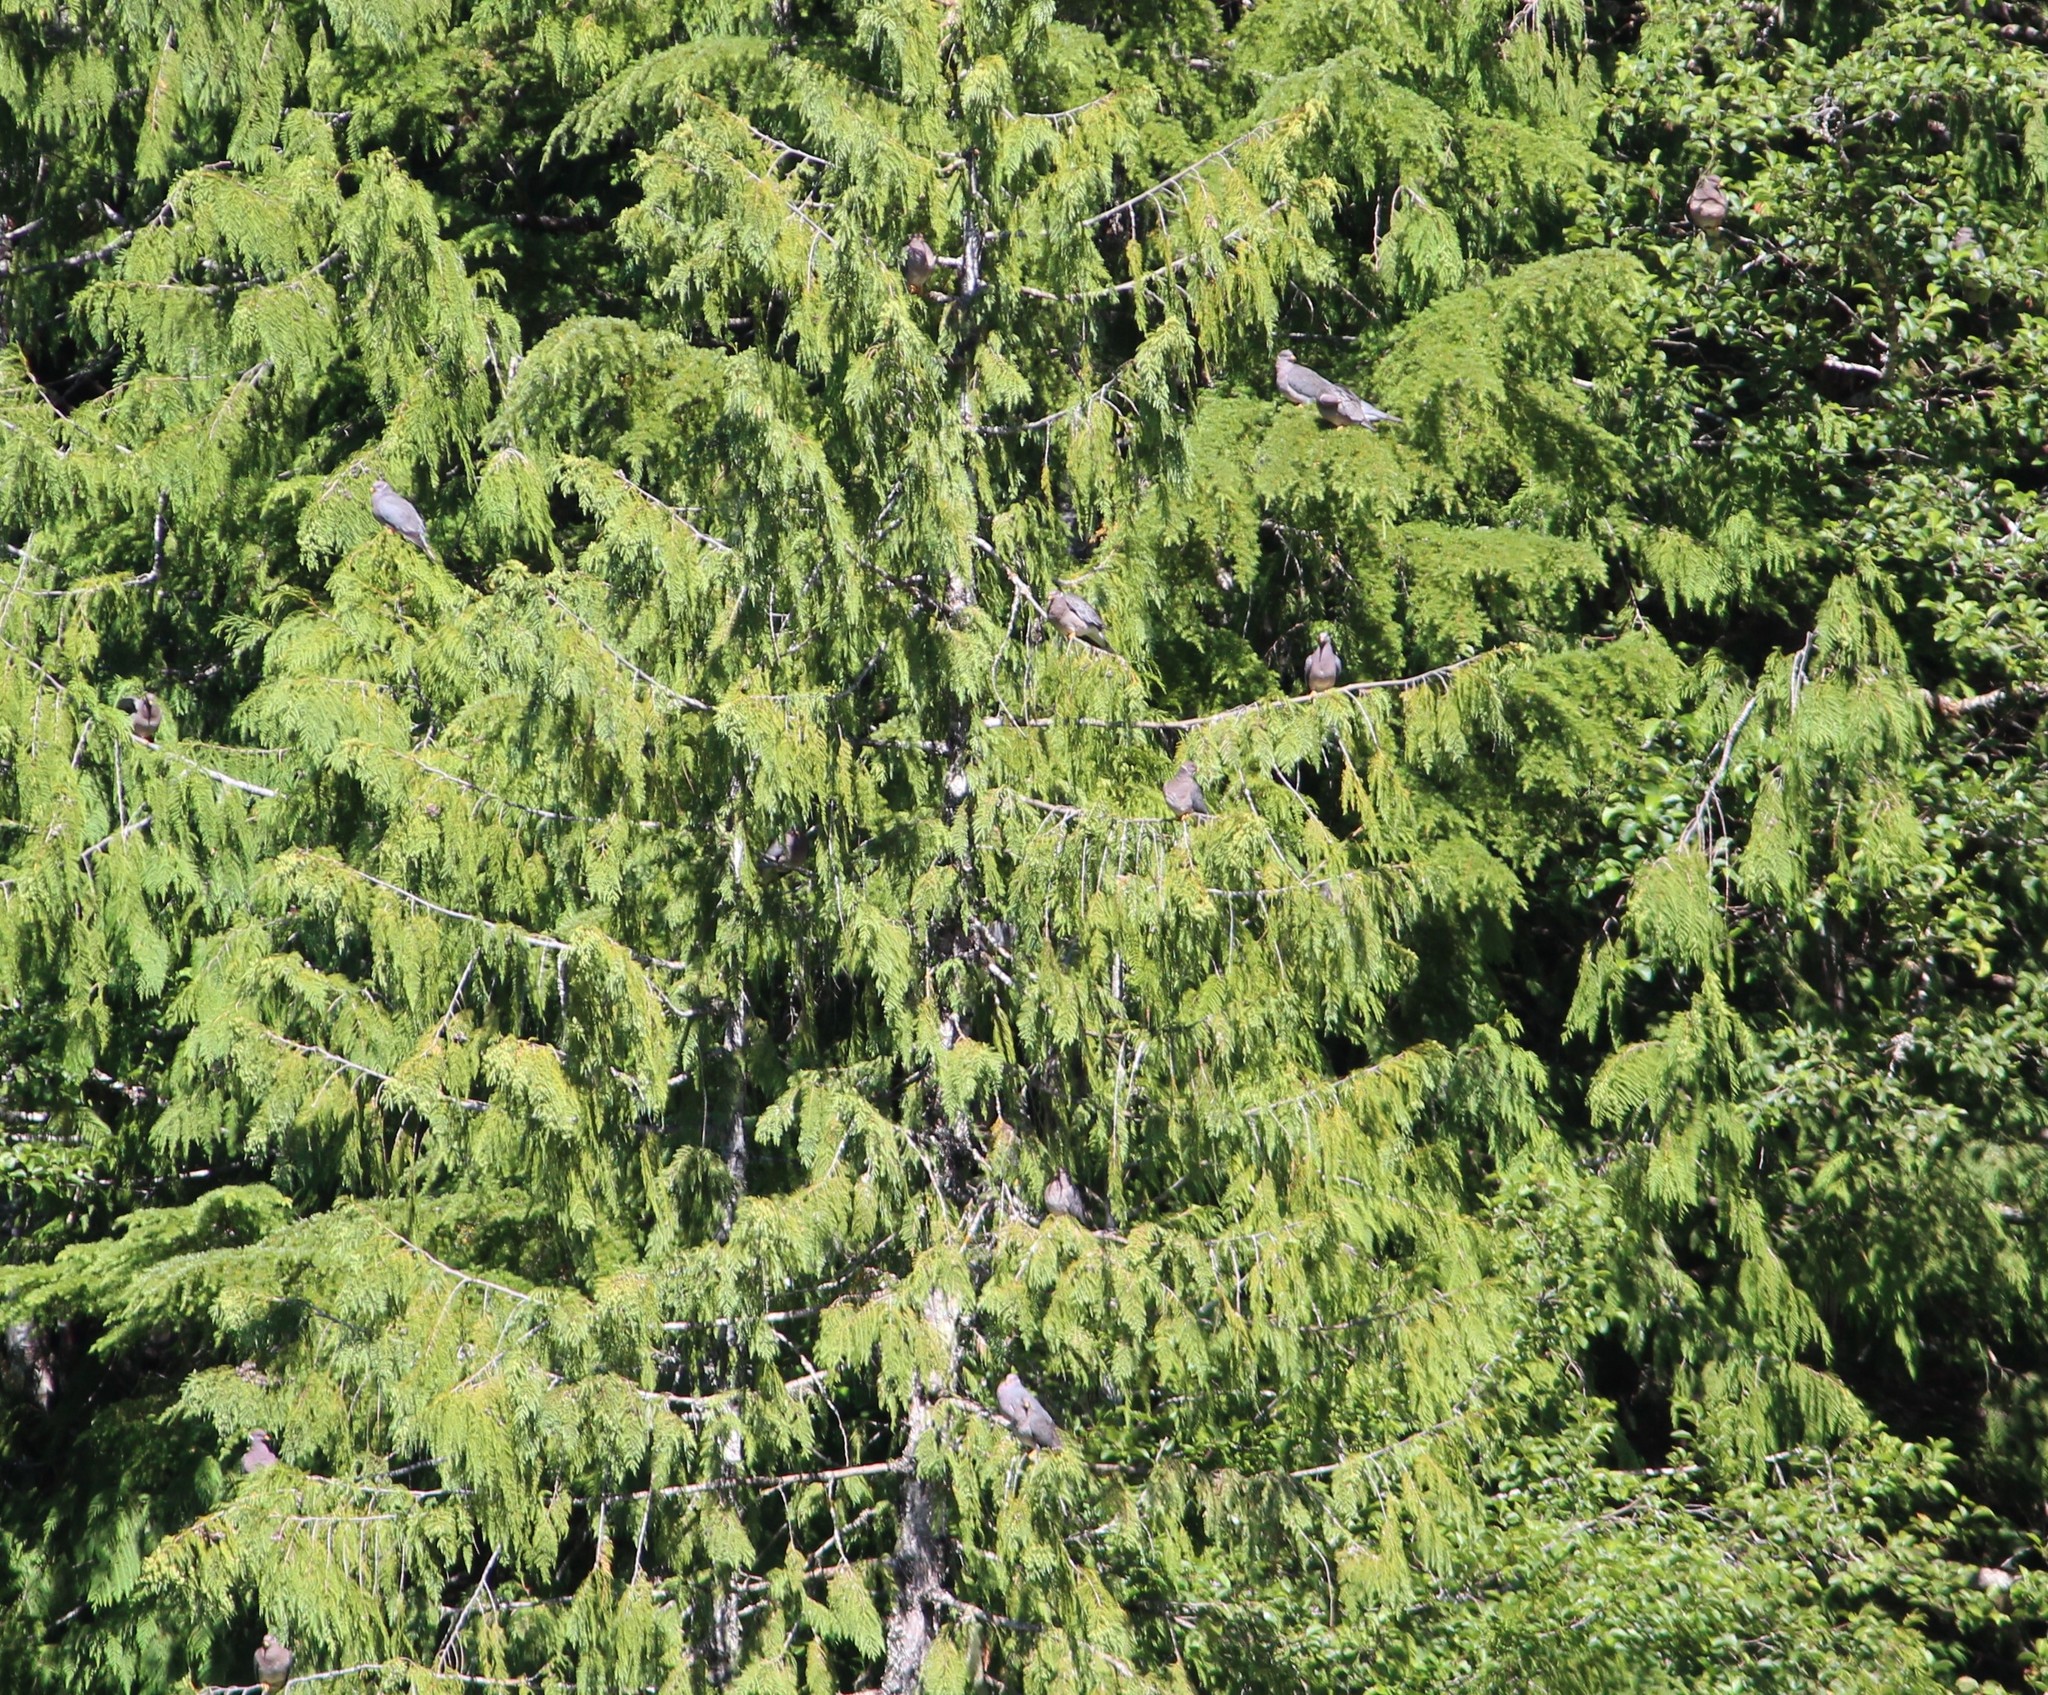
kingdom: Animalia
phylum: Chordata
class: Aves
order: Columbiformes
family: Columbidae
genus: Patagioenas
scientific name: Patagioenas fasciata
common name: Band-tailed pigeon
